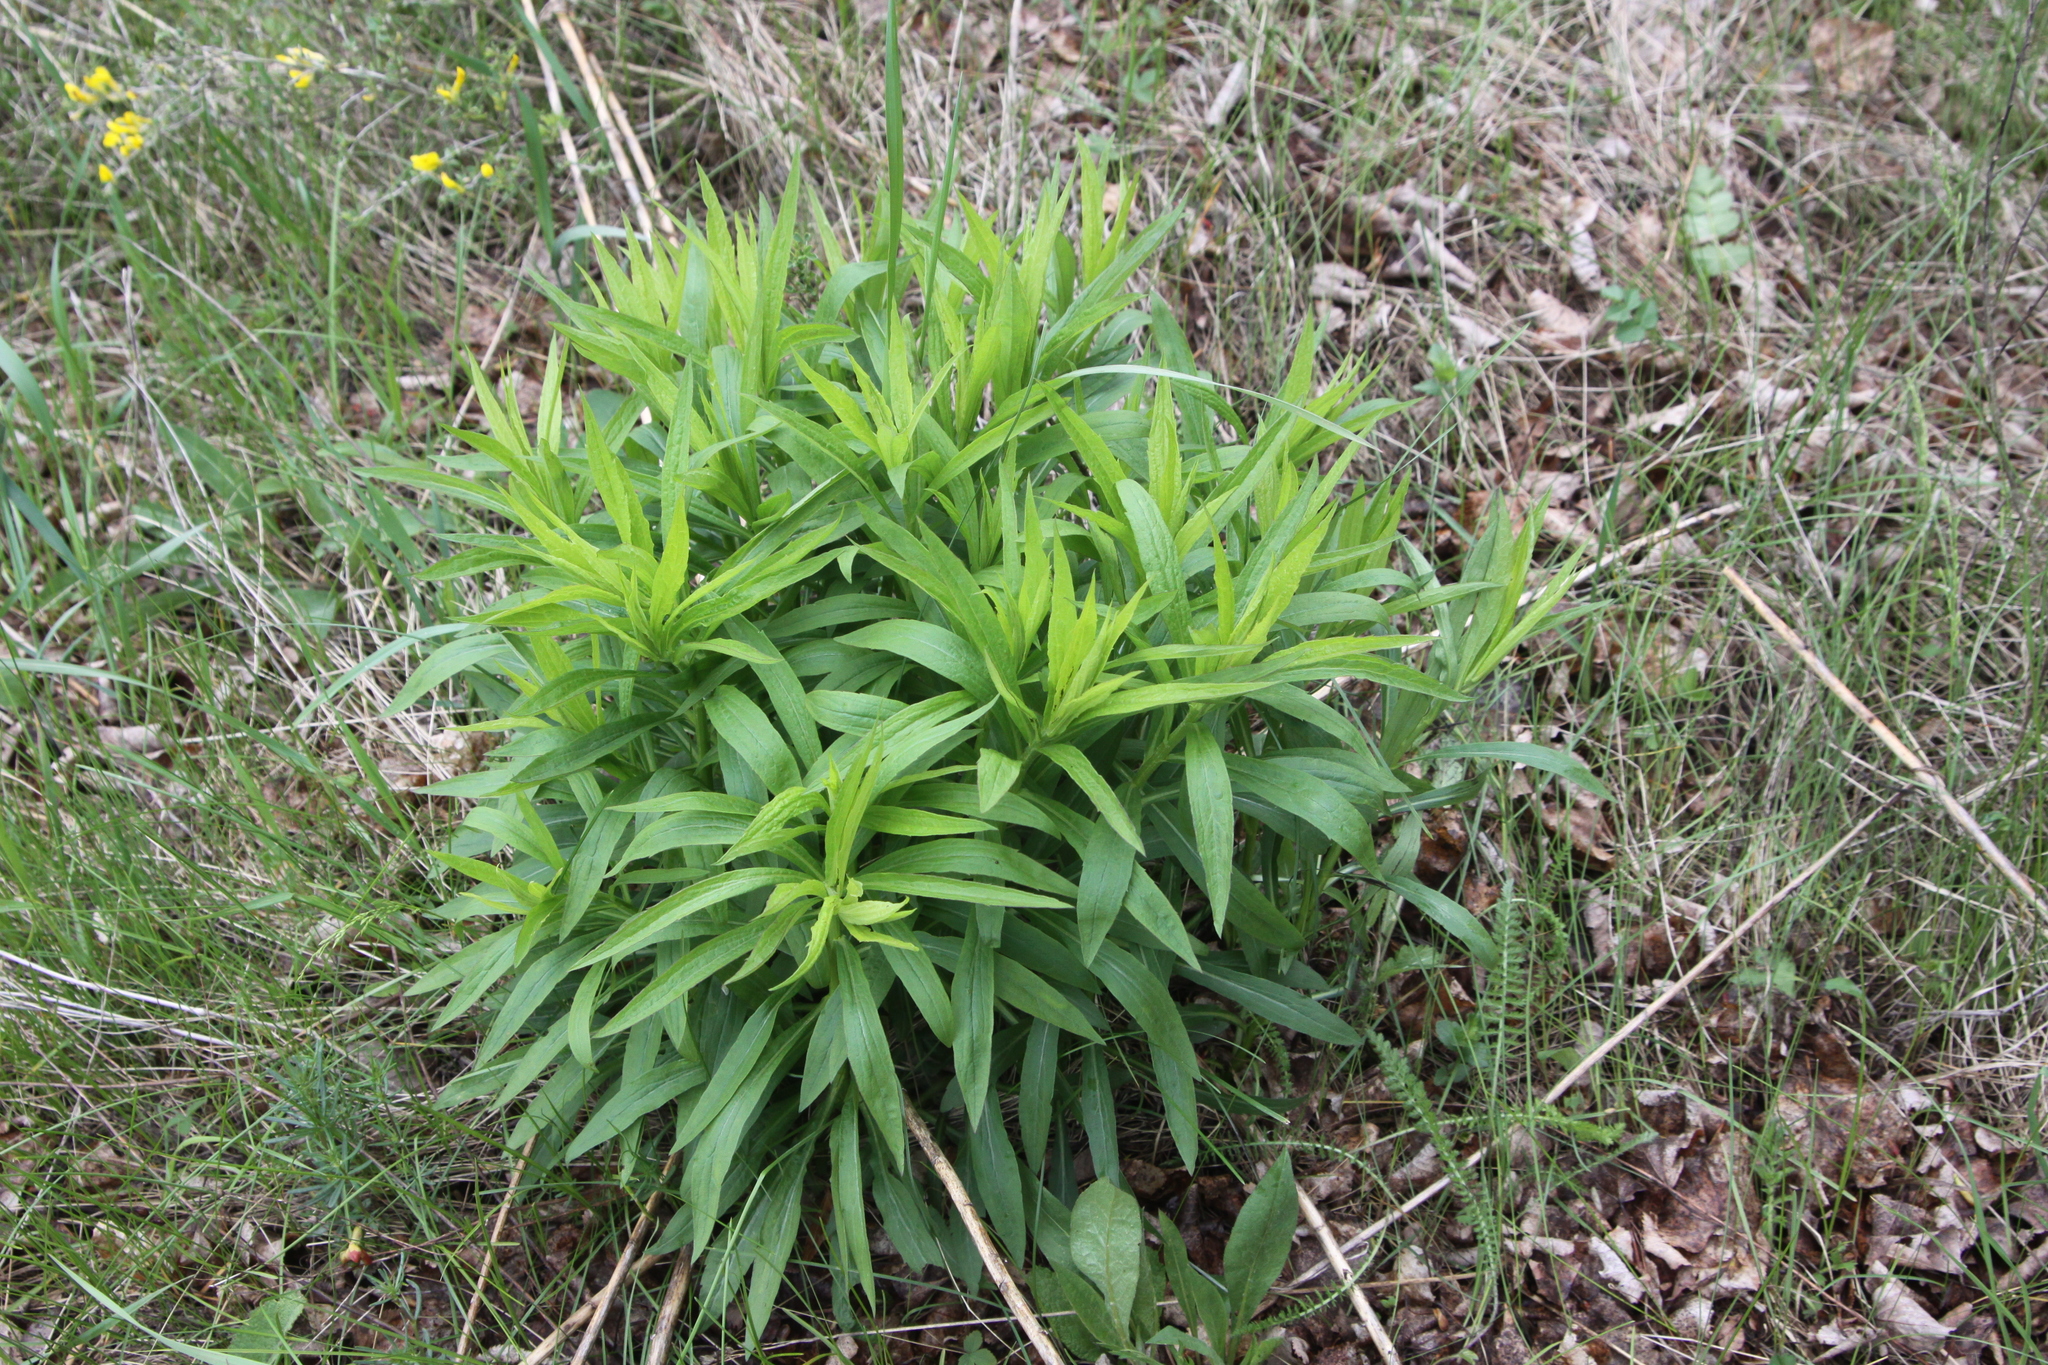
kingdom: Plantae
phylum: Tracheophyta
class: Magnoliopsida
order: Asterales
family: Asteraceae
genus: Solidago
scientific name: Solidago canadensis
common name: Canada goldenrod
